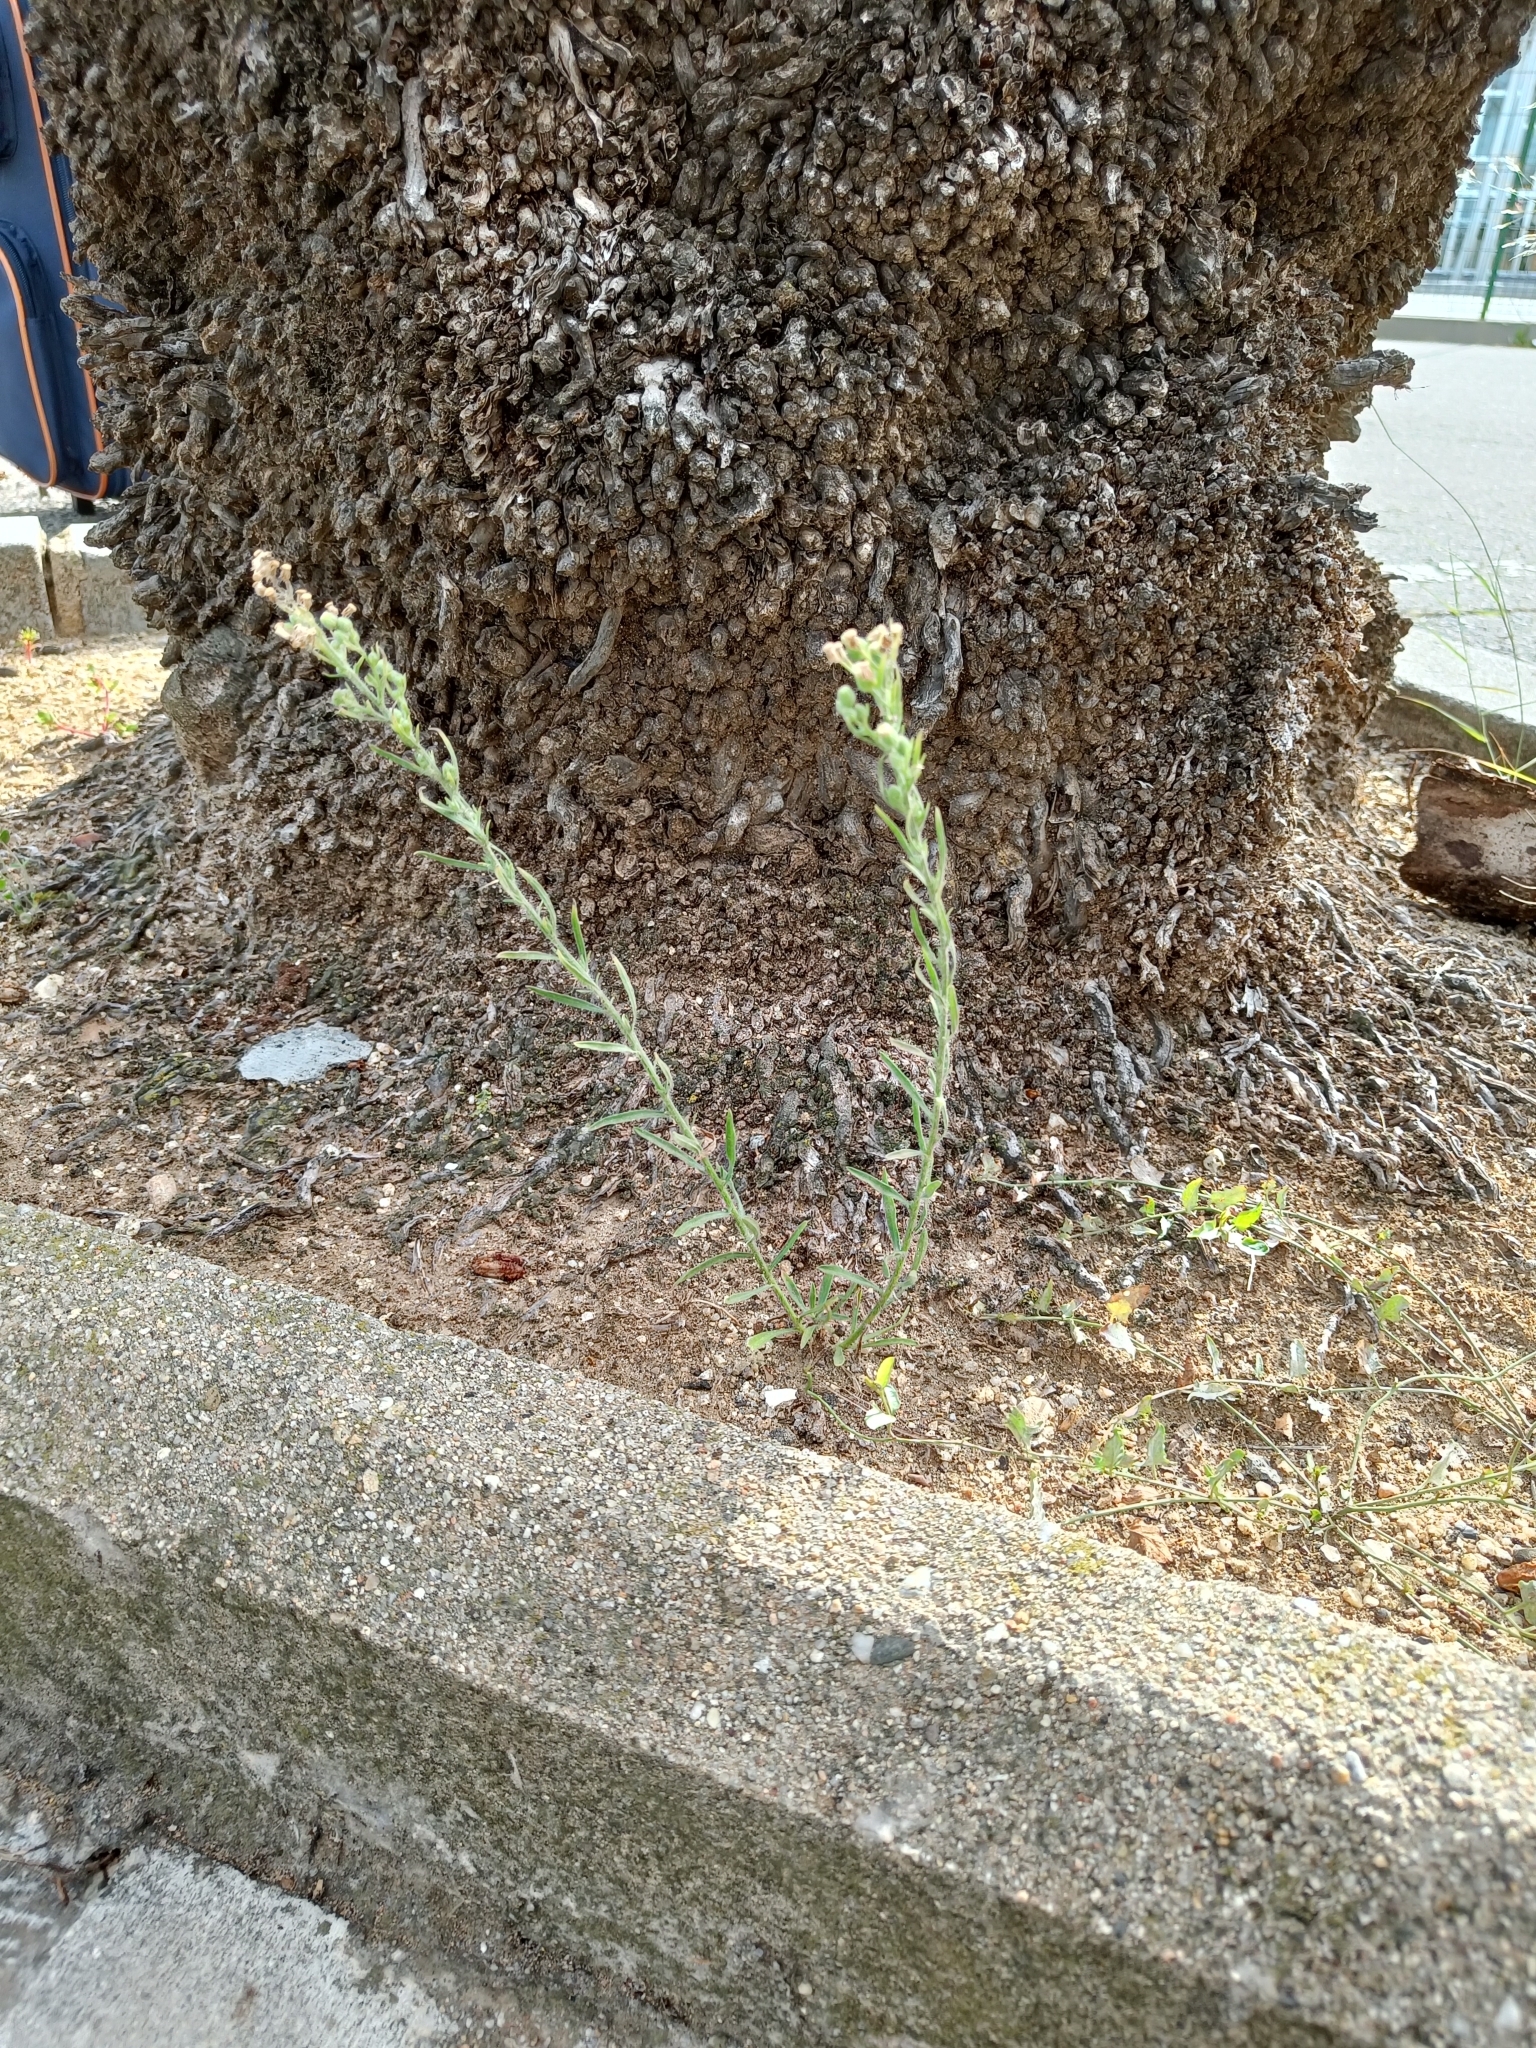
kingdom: Plantae
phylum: Tracheophyta
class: Magnoliopsida
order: Asterales
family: Asteraceae
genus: Erigeron
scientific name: Erigeron bonariensis
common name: Argentine fleabane
